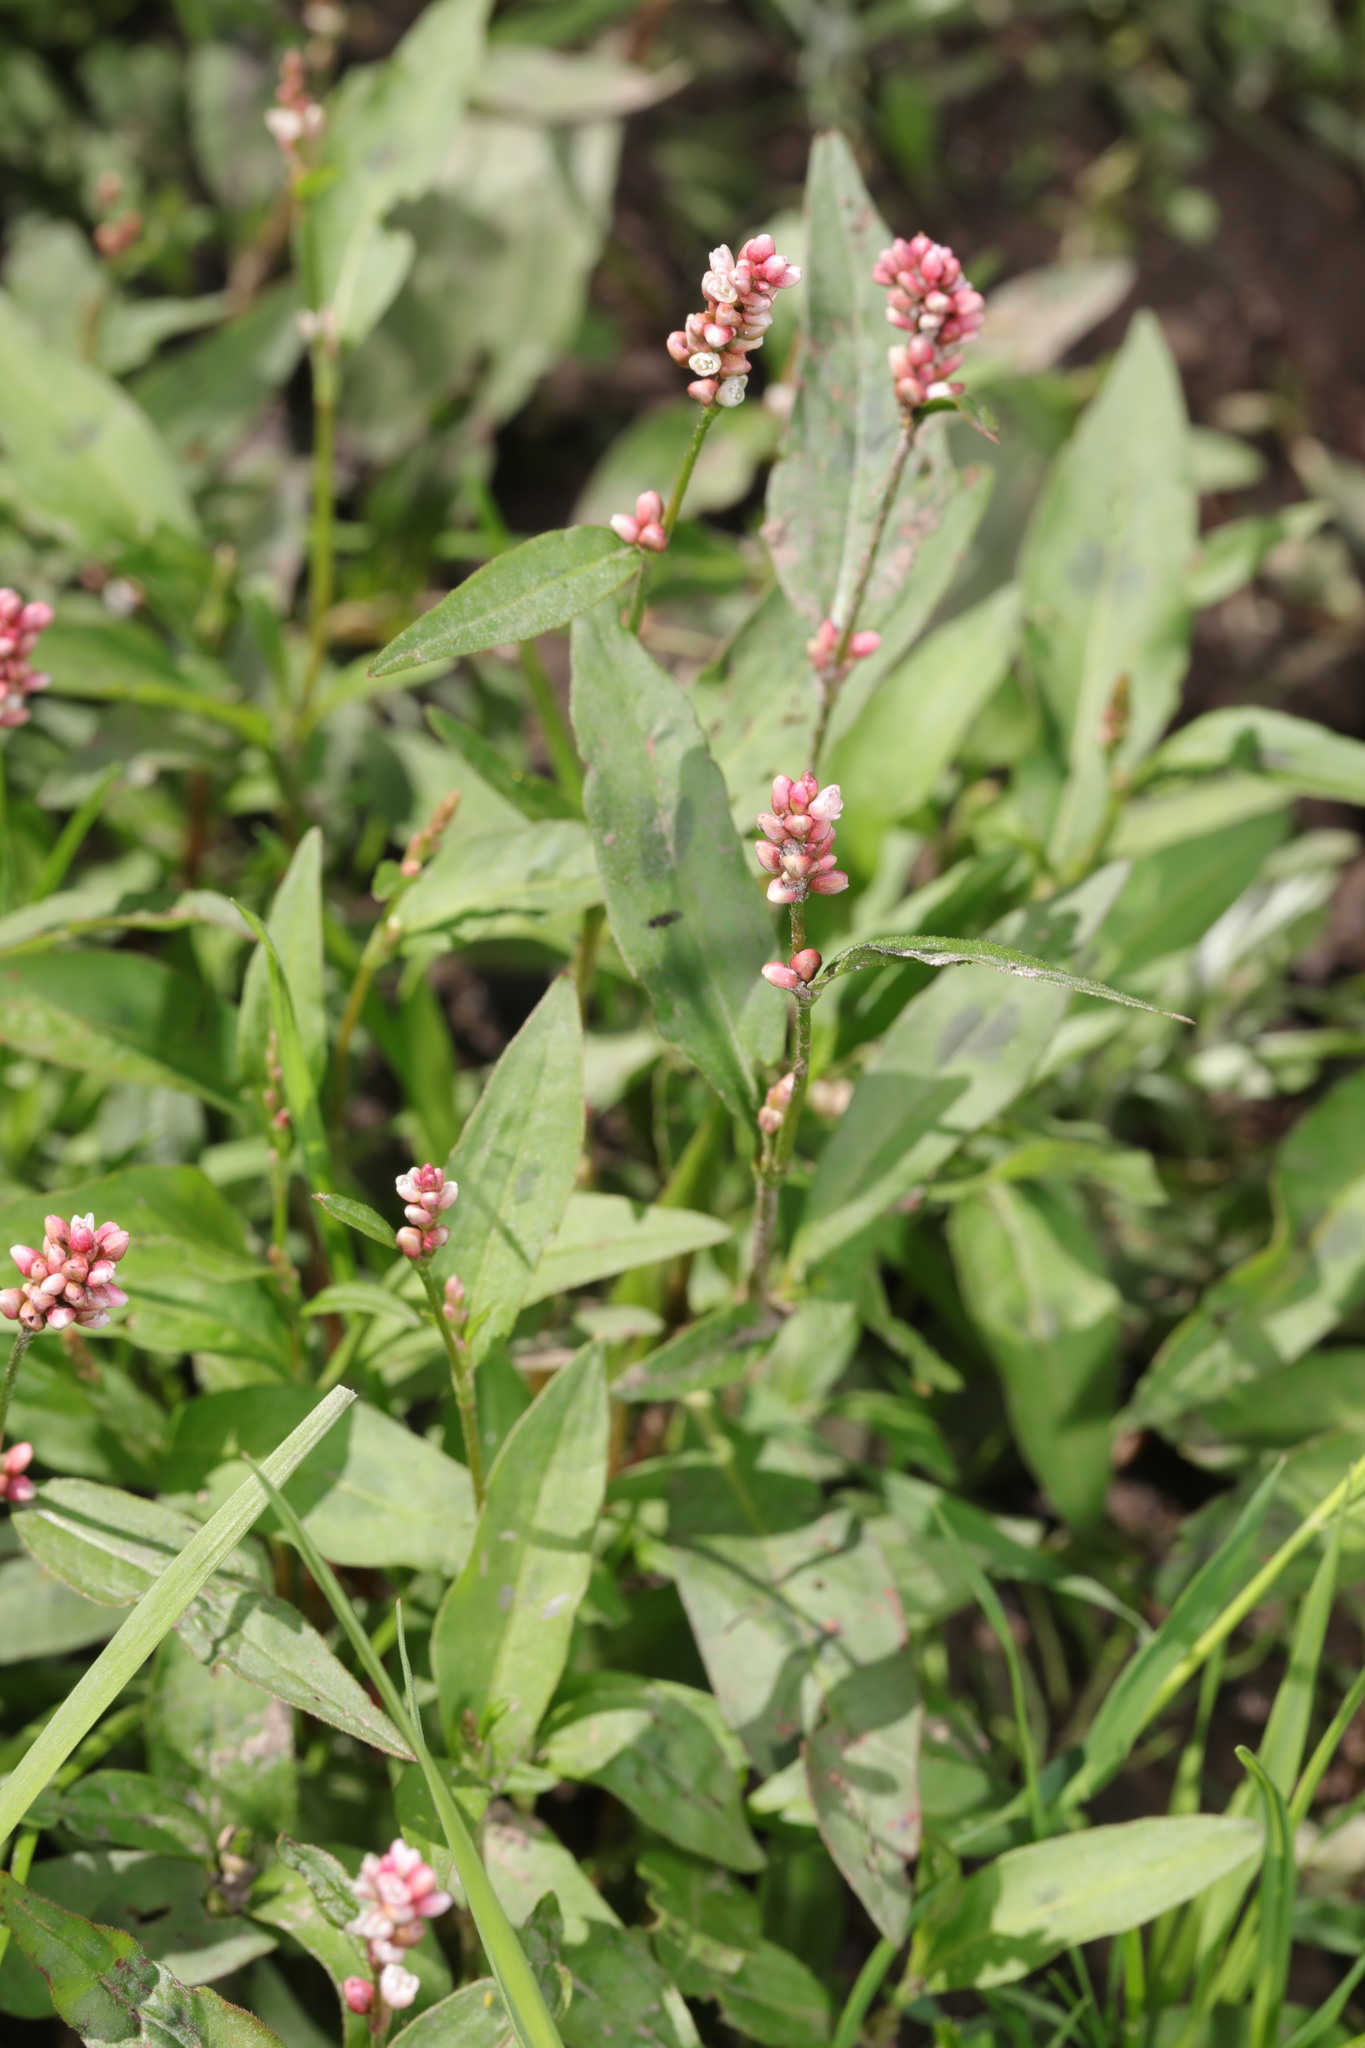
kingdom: Plantae
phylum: Tracheophyta
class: Magnoliopsida
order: Caryophyllales
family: Polygonaceae
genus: Persicaria
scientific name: Persicaria maculosa
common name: Redshank
